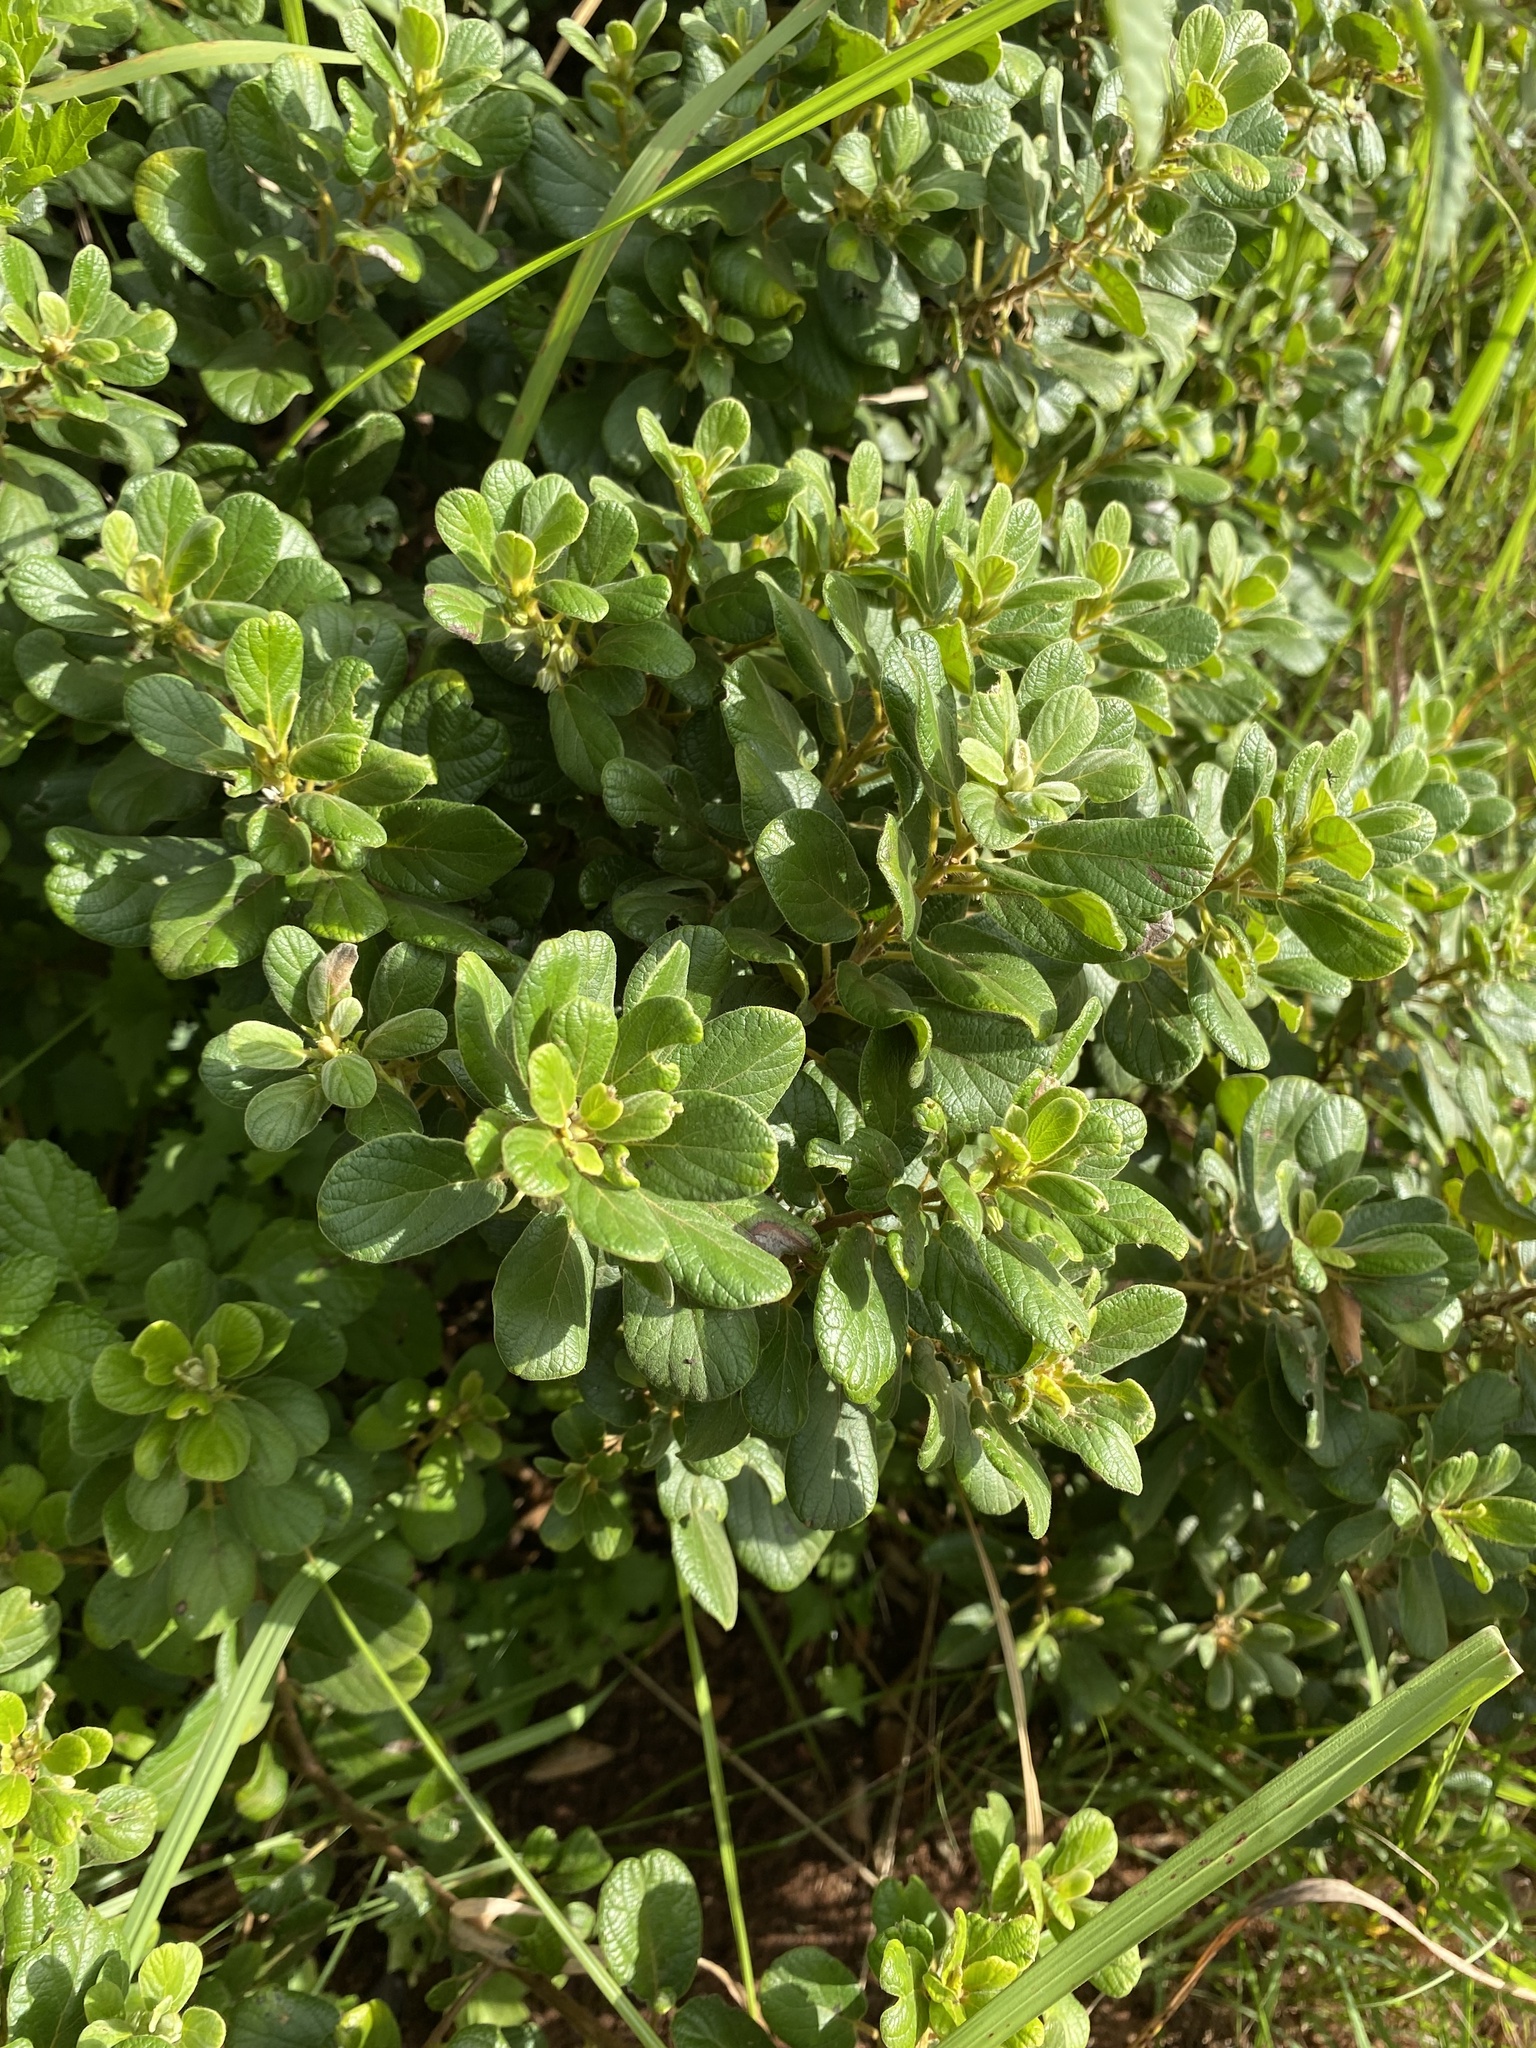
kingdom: Plantae
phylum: Tracheophyta
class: Magnoliopsida
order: Ericales
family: Ebenaceae
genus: Diospyros
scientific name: Diospyros villosa
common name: Hairy star-apple
